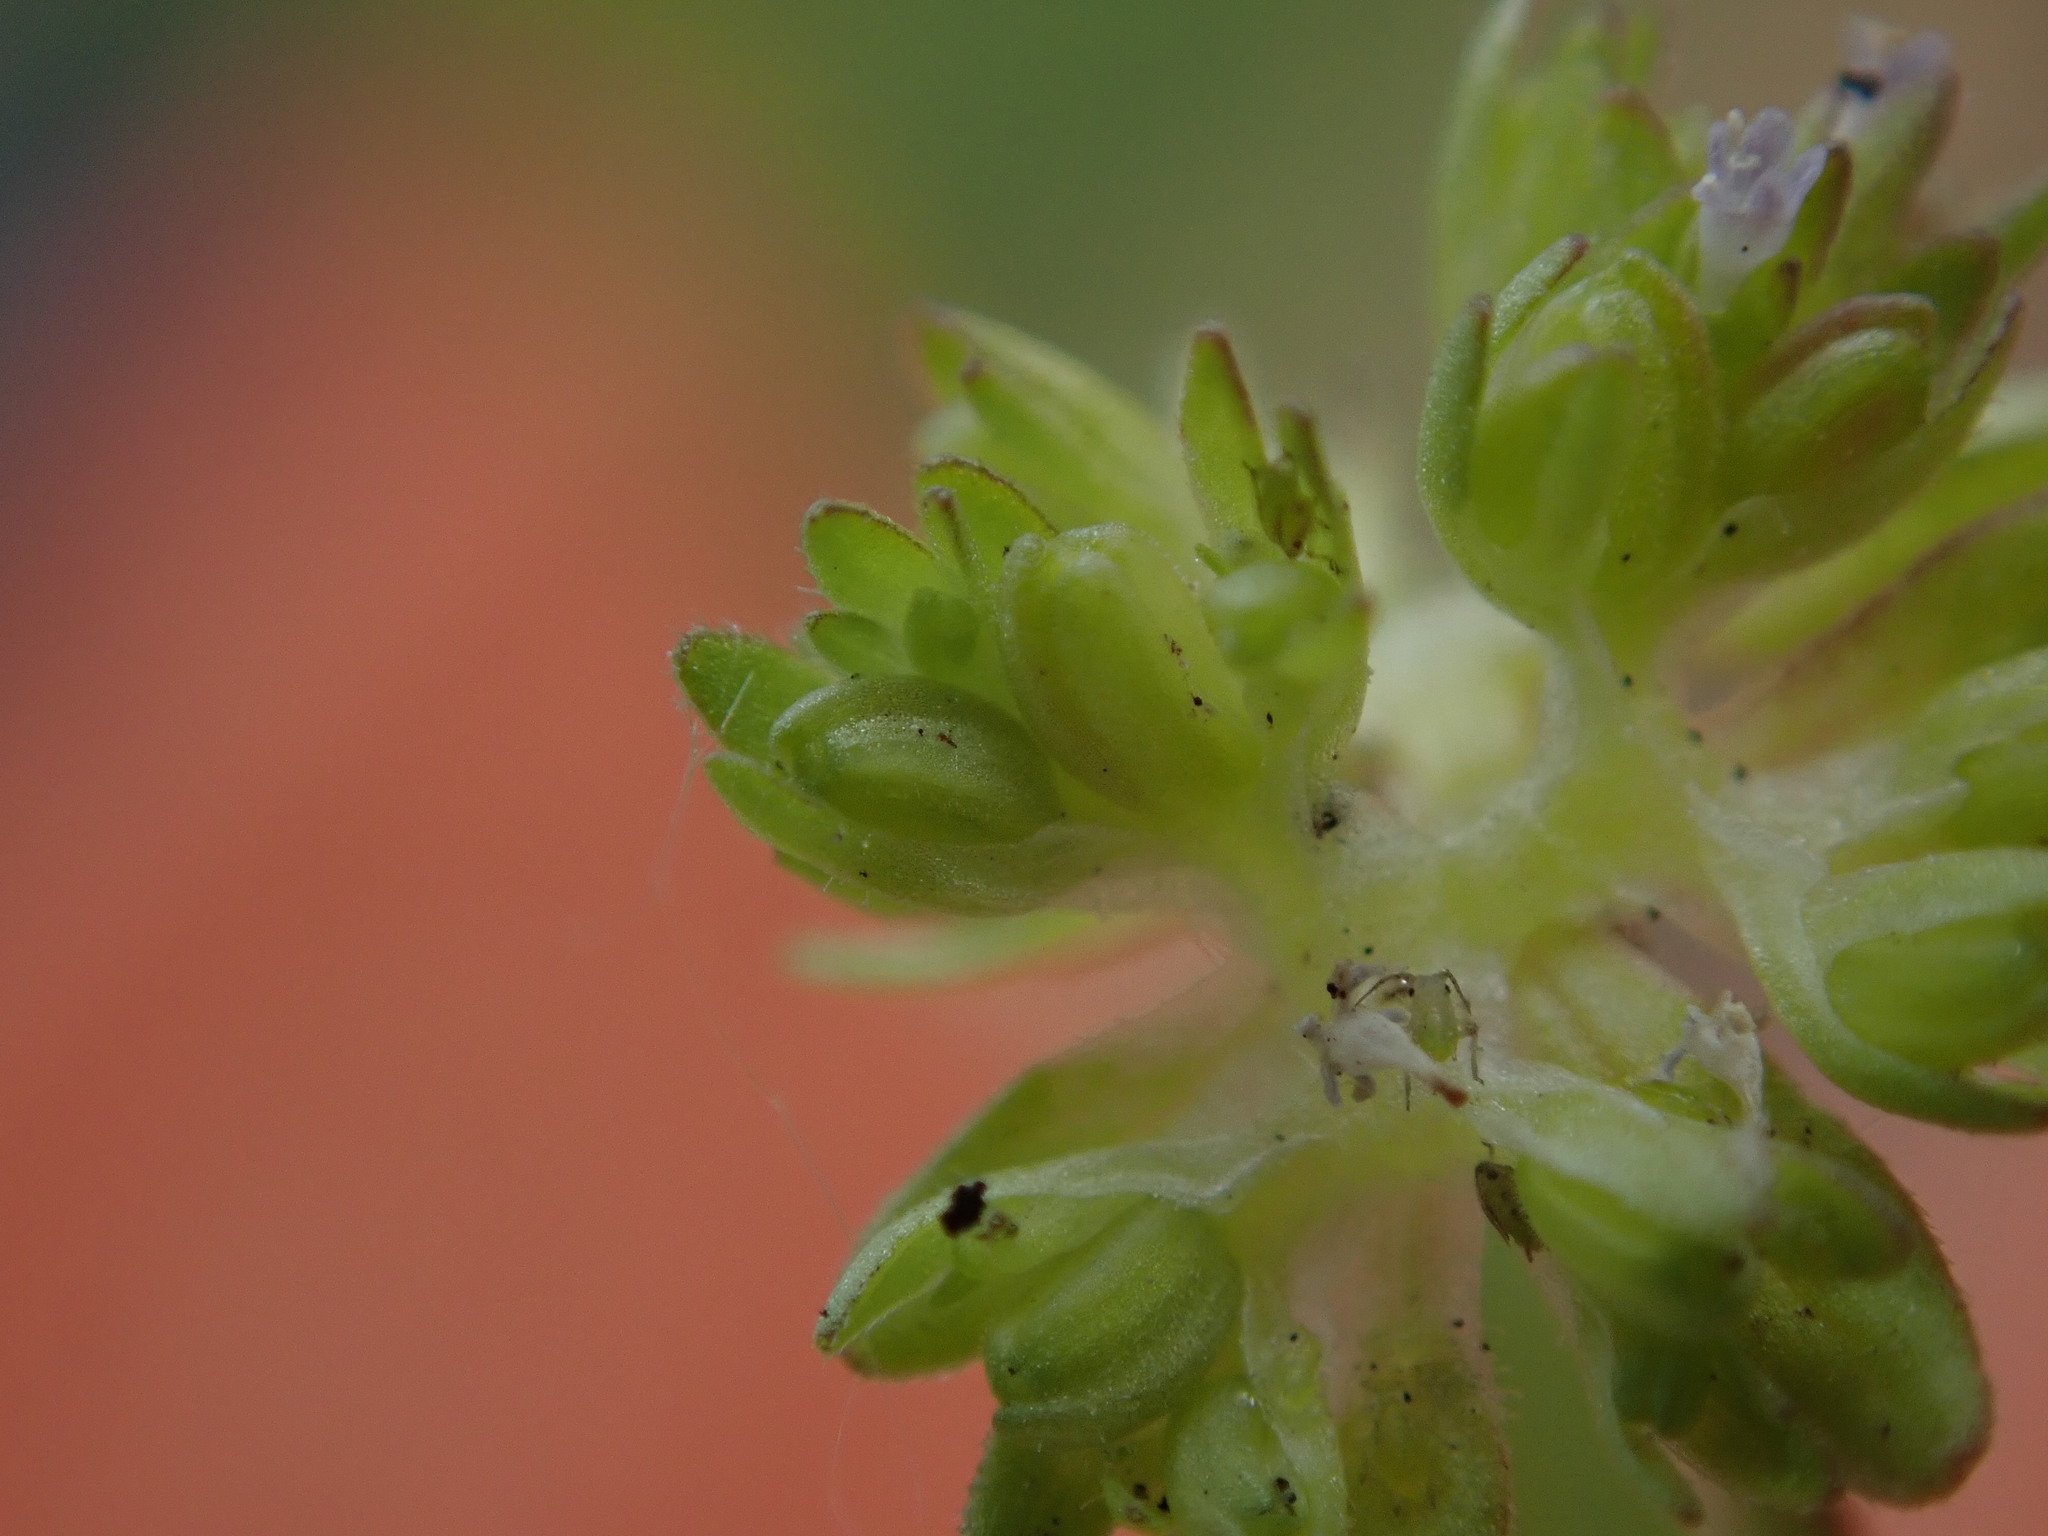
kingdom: Plantae
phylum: Tracheophyta
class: Magnoliopsida
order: Dipsacales
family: Caprifoliaceae
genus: Valerianella
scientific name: Valerianella carinata
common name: Keeled-fruited cornsalad
